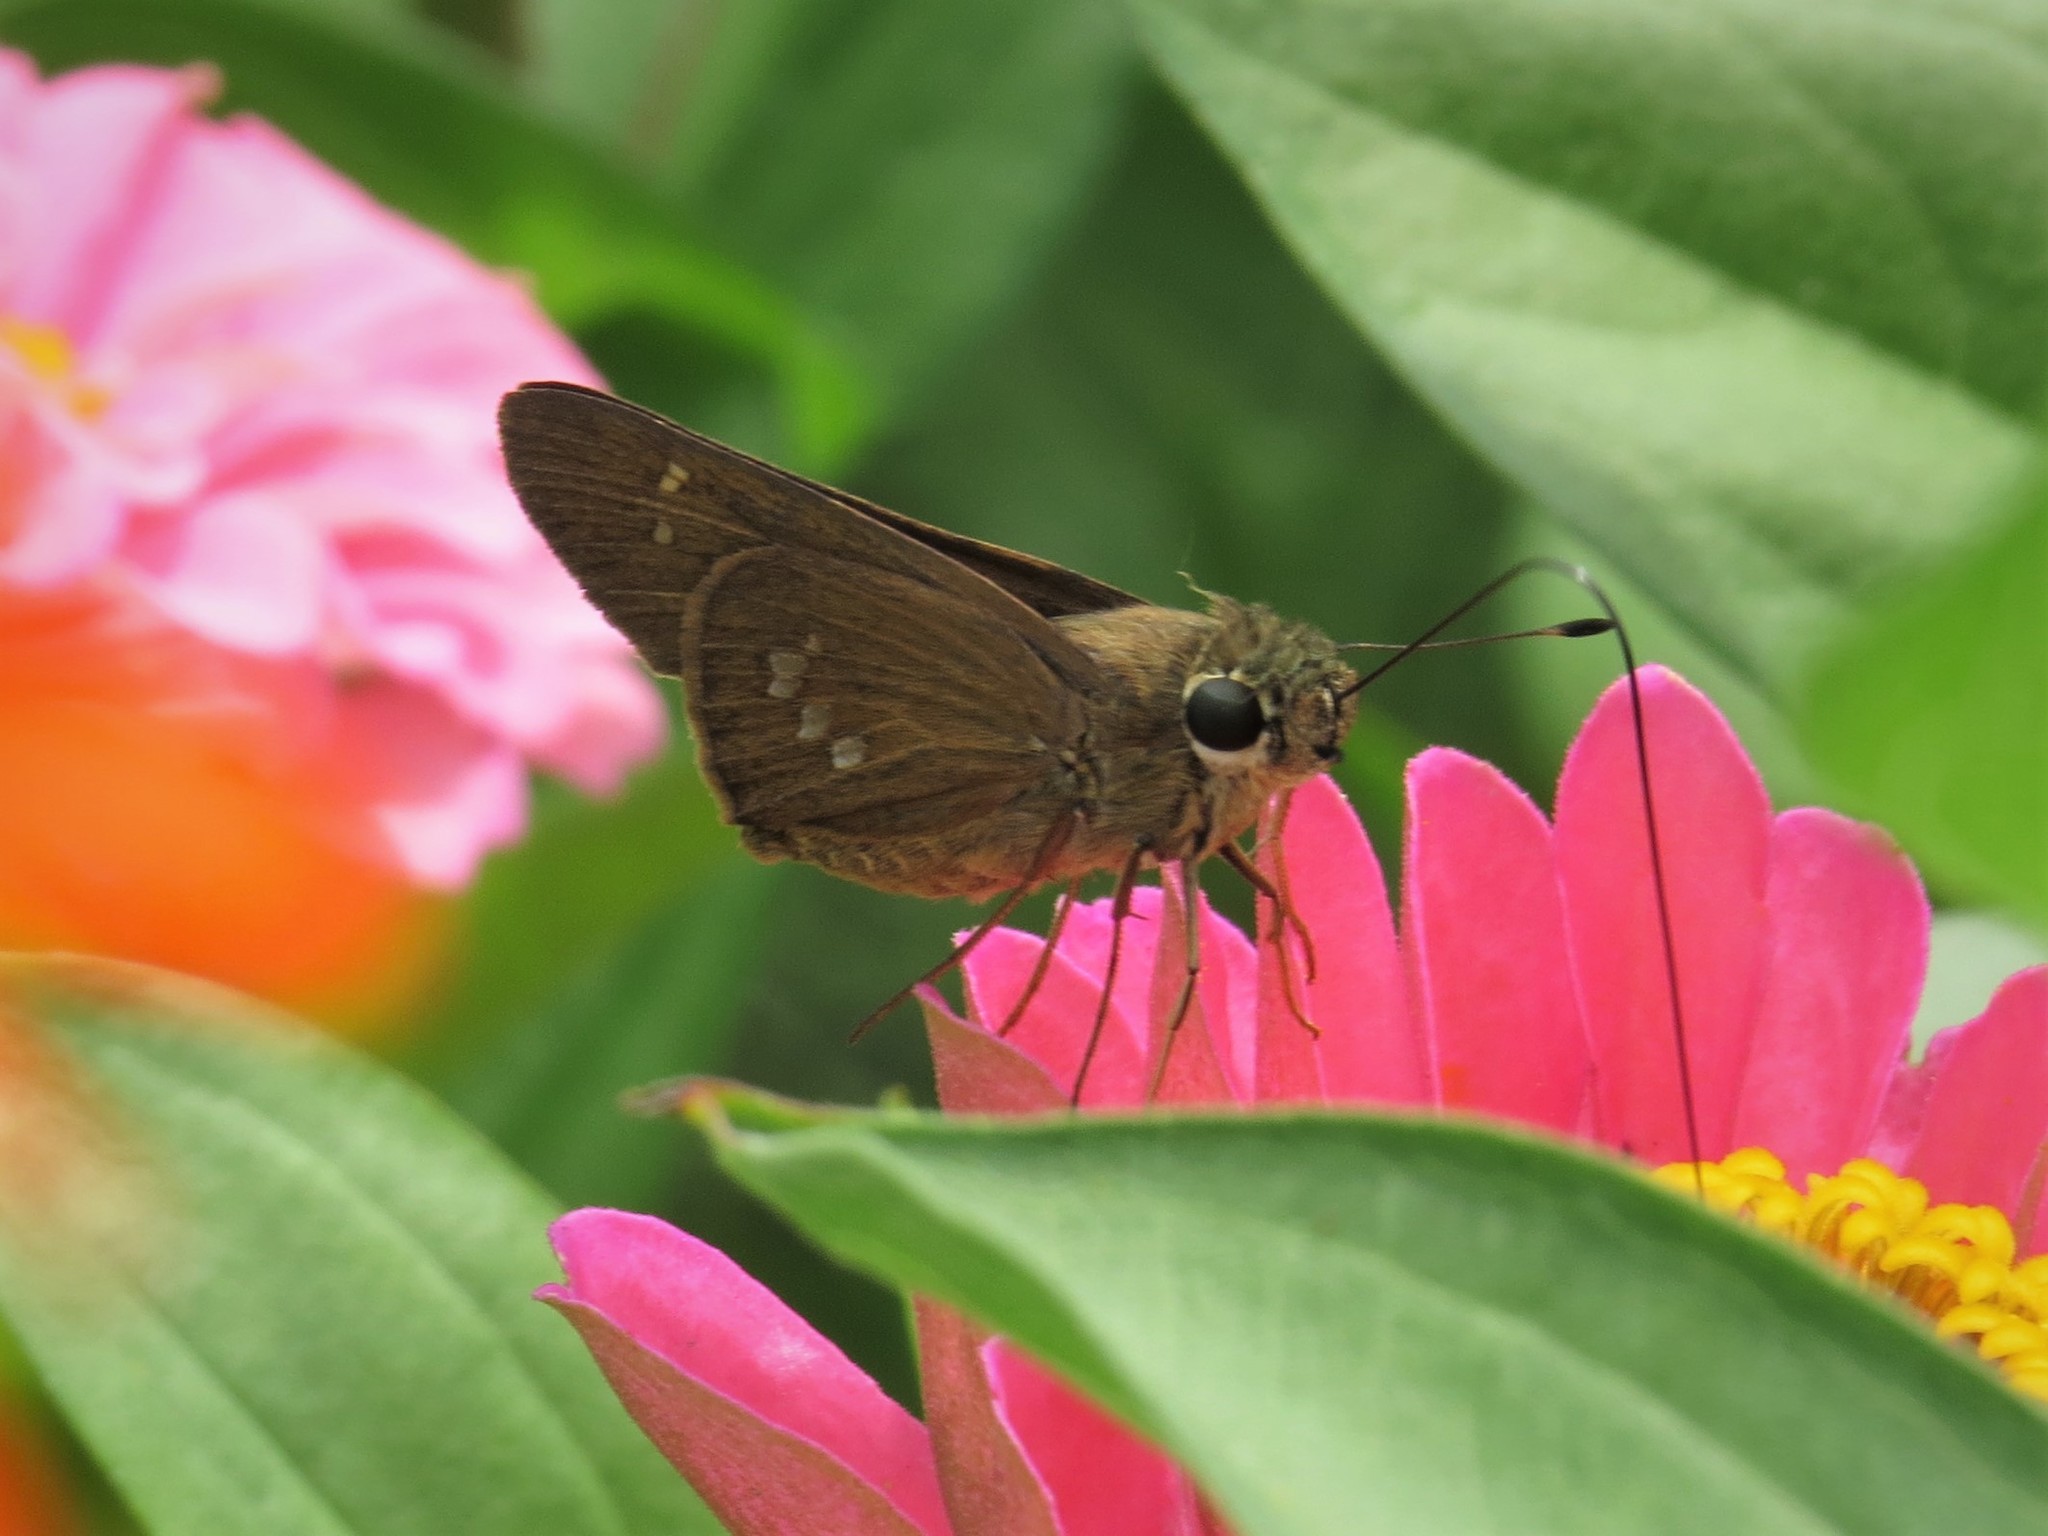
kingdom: Animalia
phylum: Arthropoda
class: Insecta
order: Lepidoptera
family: Hesperiidae
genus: Calpodes
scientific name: Calpodes ethlius
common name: Brazilian skipper
